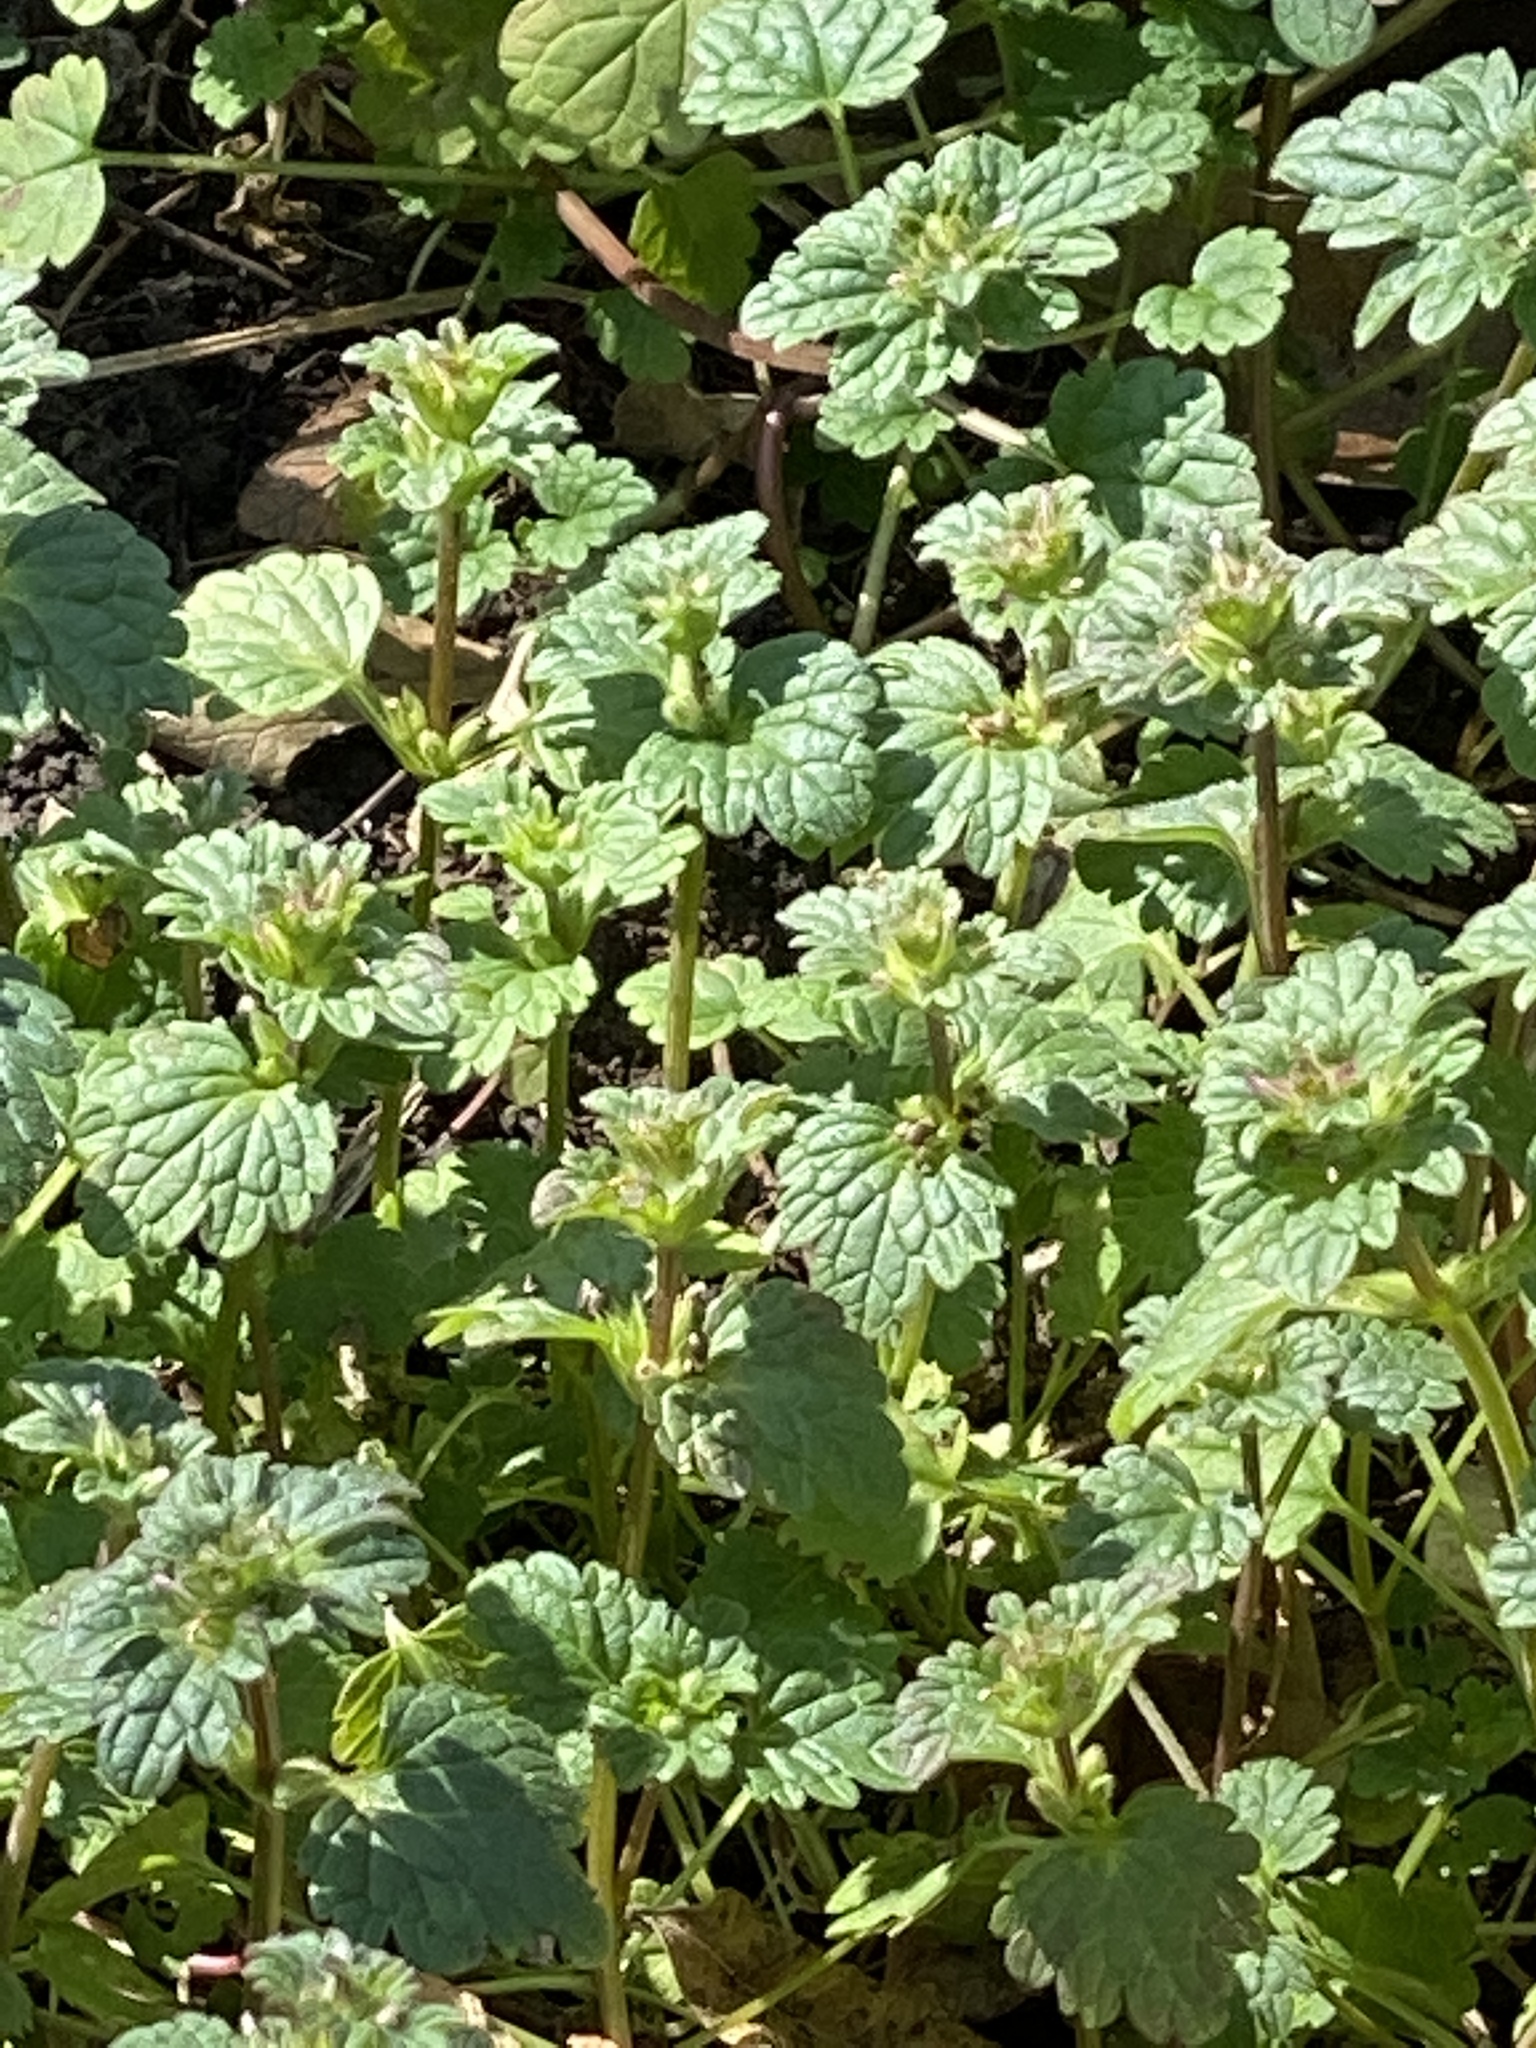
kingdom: Plantae
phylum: Tracheophyta
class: Magnoliopsida
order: Lamiales
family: Lamiaceae
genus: Lamium
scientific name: Lamium amplexicaule
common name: Henbit dead-nettle
